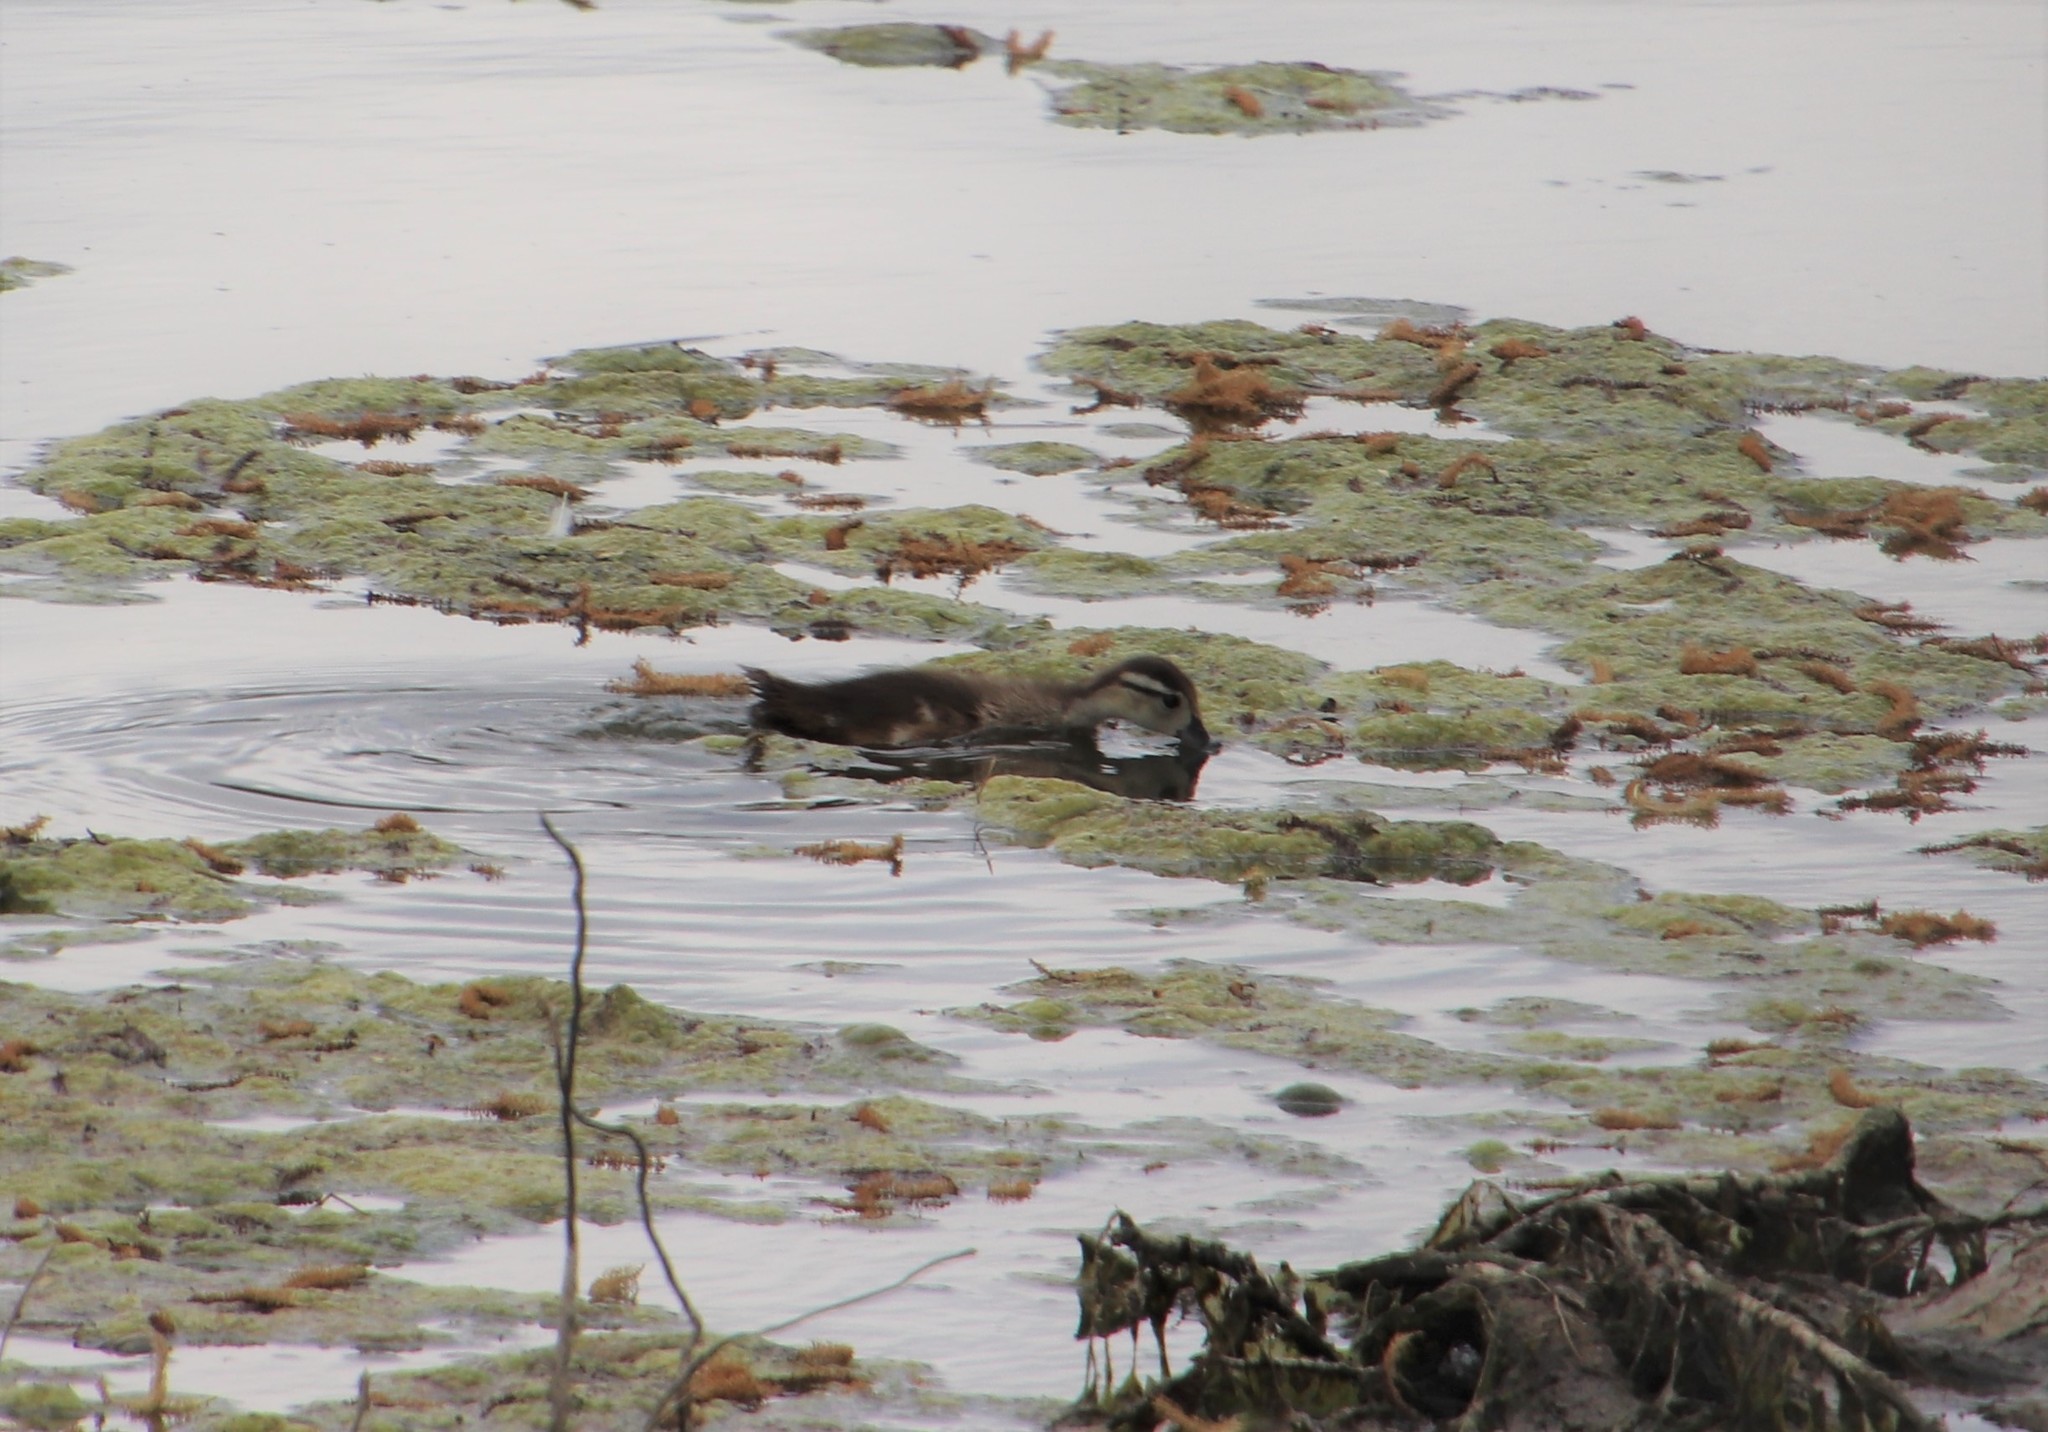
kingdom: Animalia
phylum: Chordata
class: Aves
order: Anseriformes
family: Anatidae
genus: Aix
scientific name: Aix sponsa
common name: Wood duck
